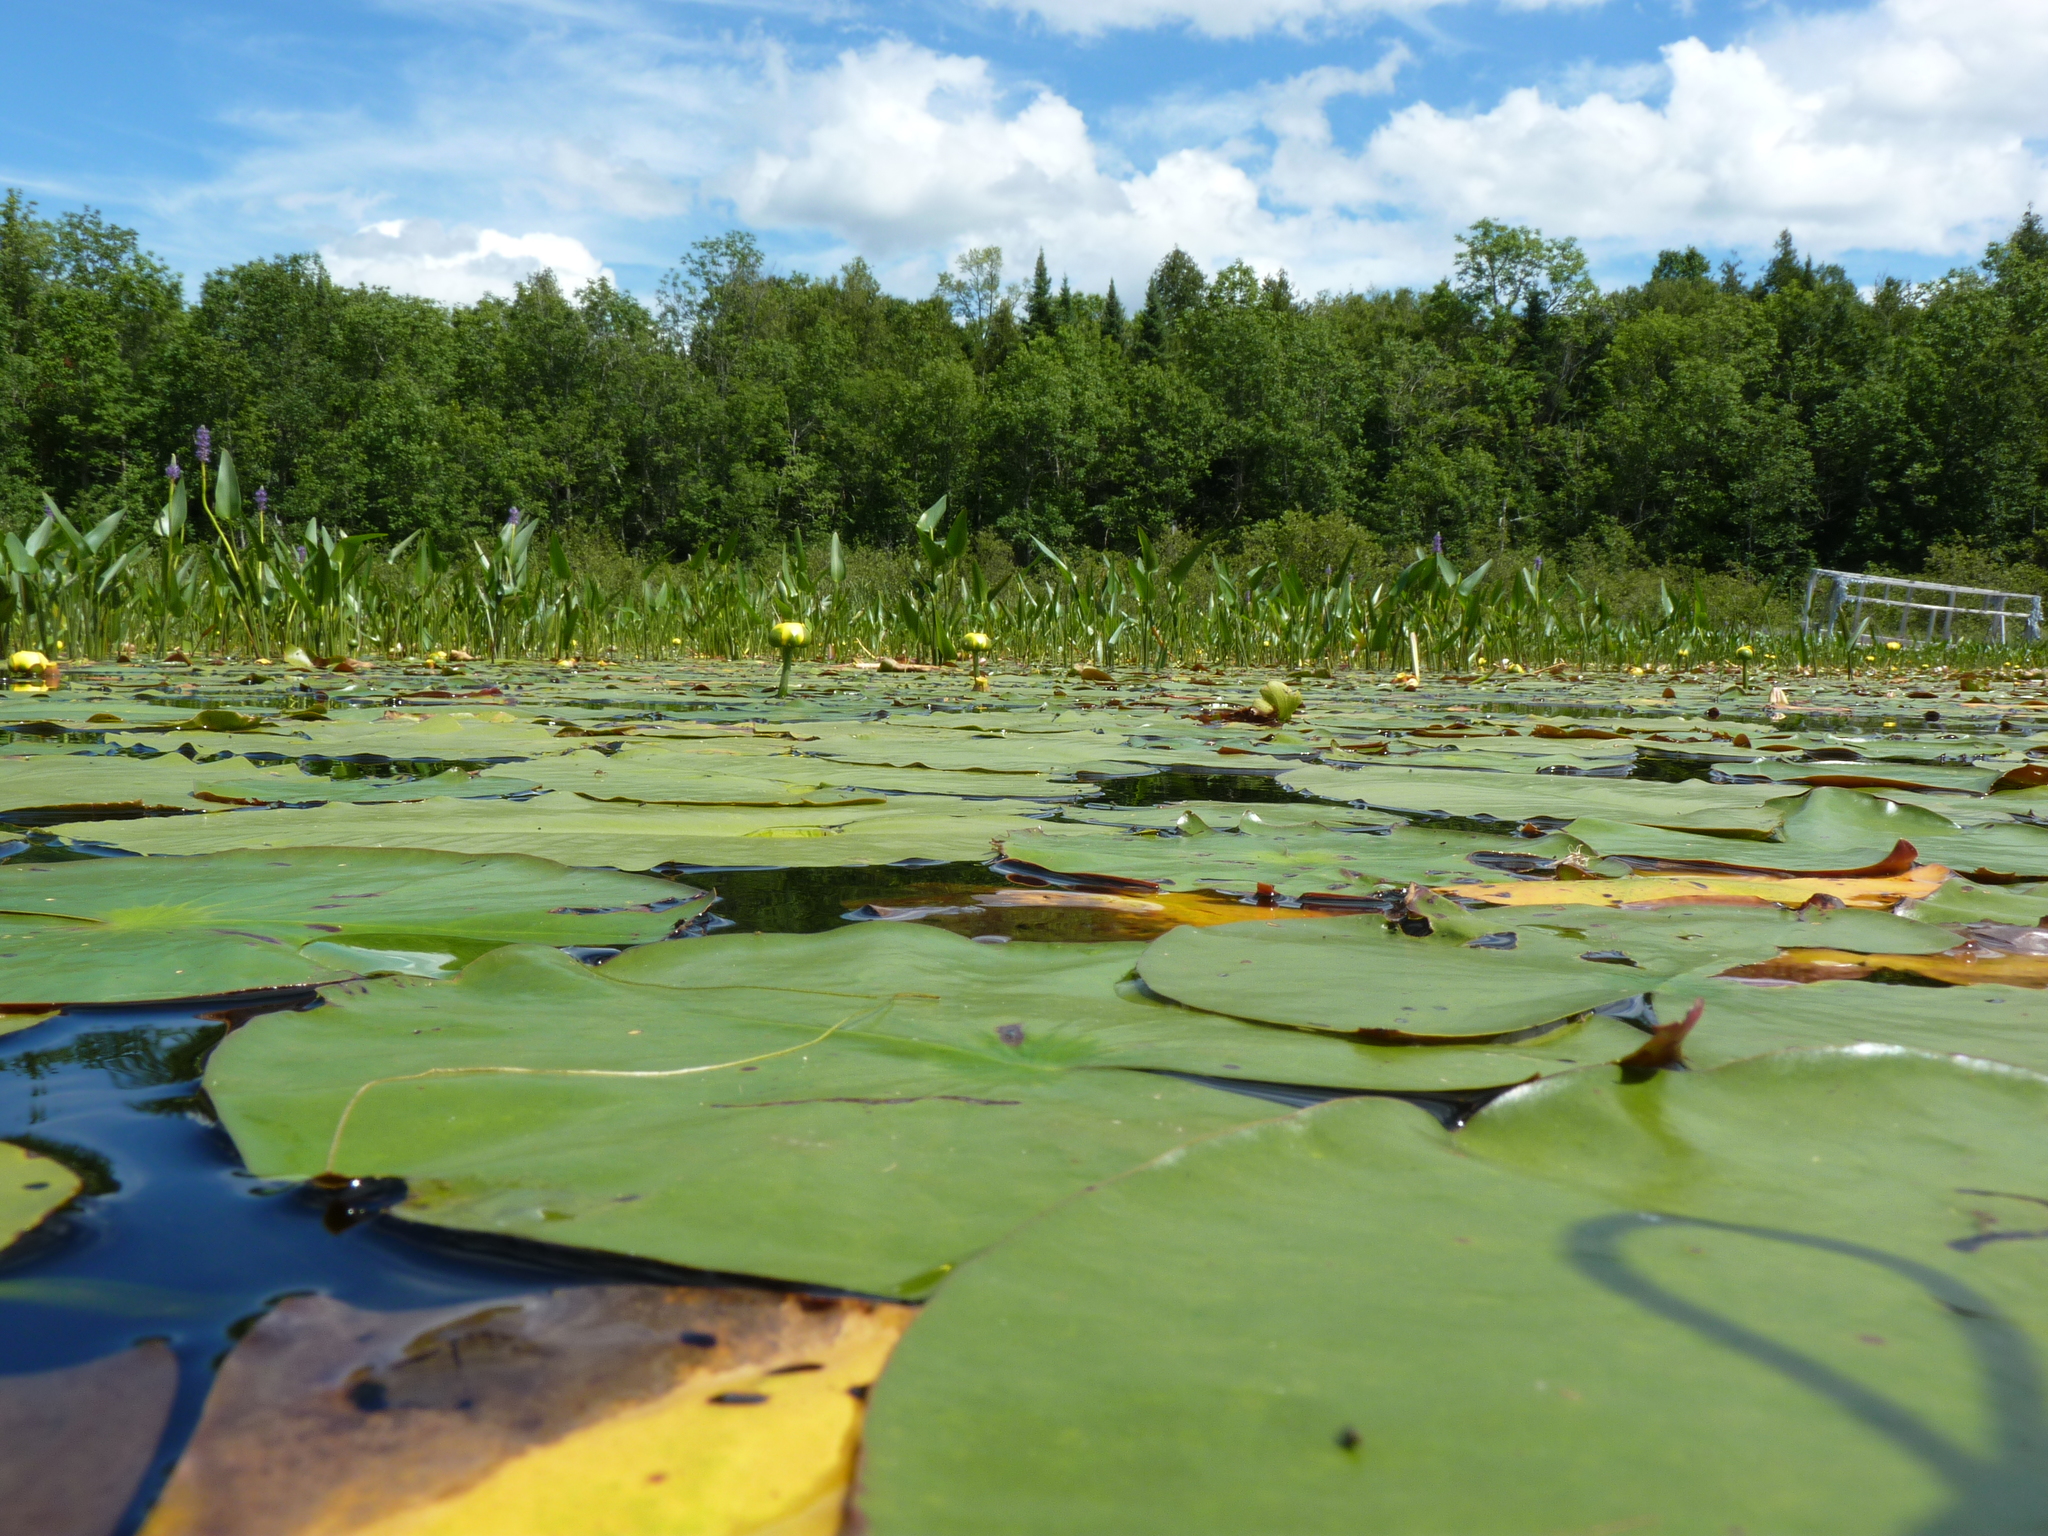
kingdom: Plantae
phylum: Tracheophyta
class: Magnoliopsida
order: Nymphaeales
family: Nymphaeaceae
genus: Nuphar
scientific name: Nuphar variegata
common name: Beaver-root
